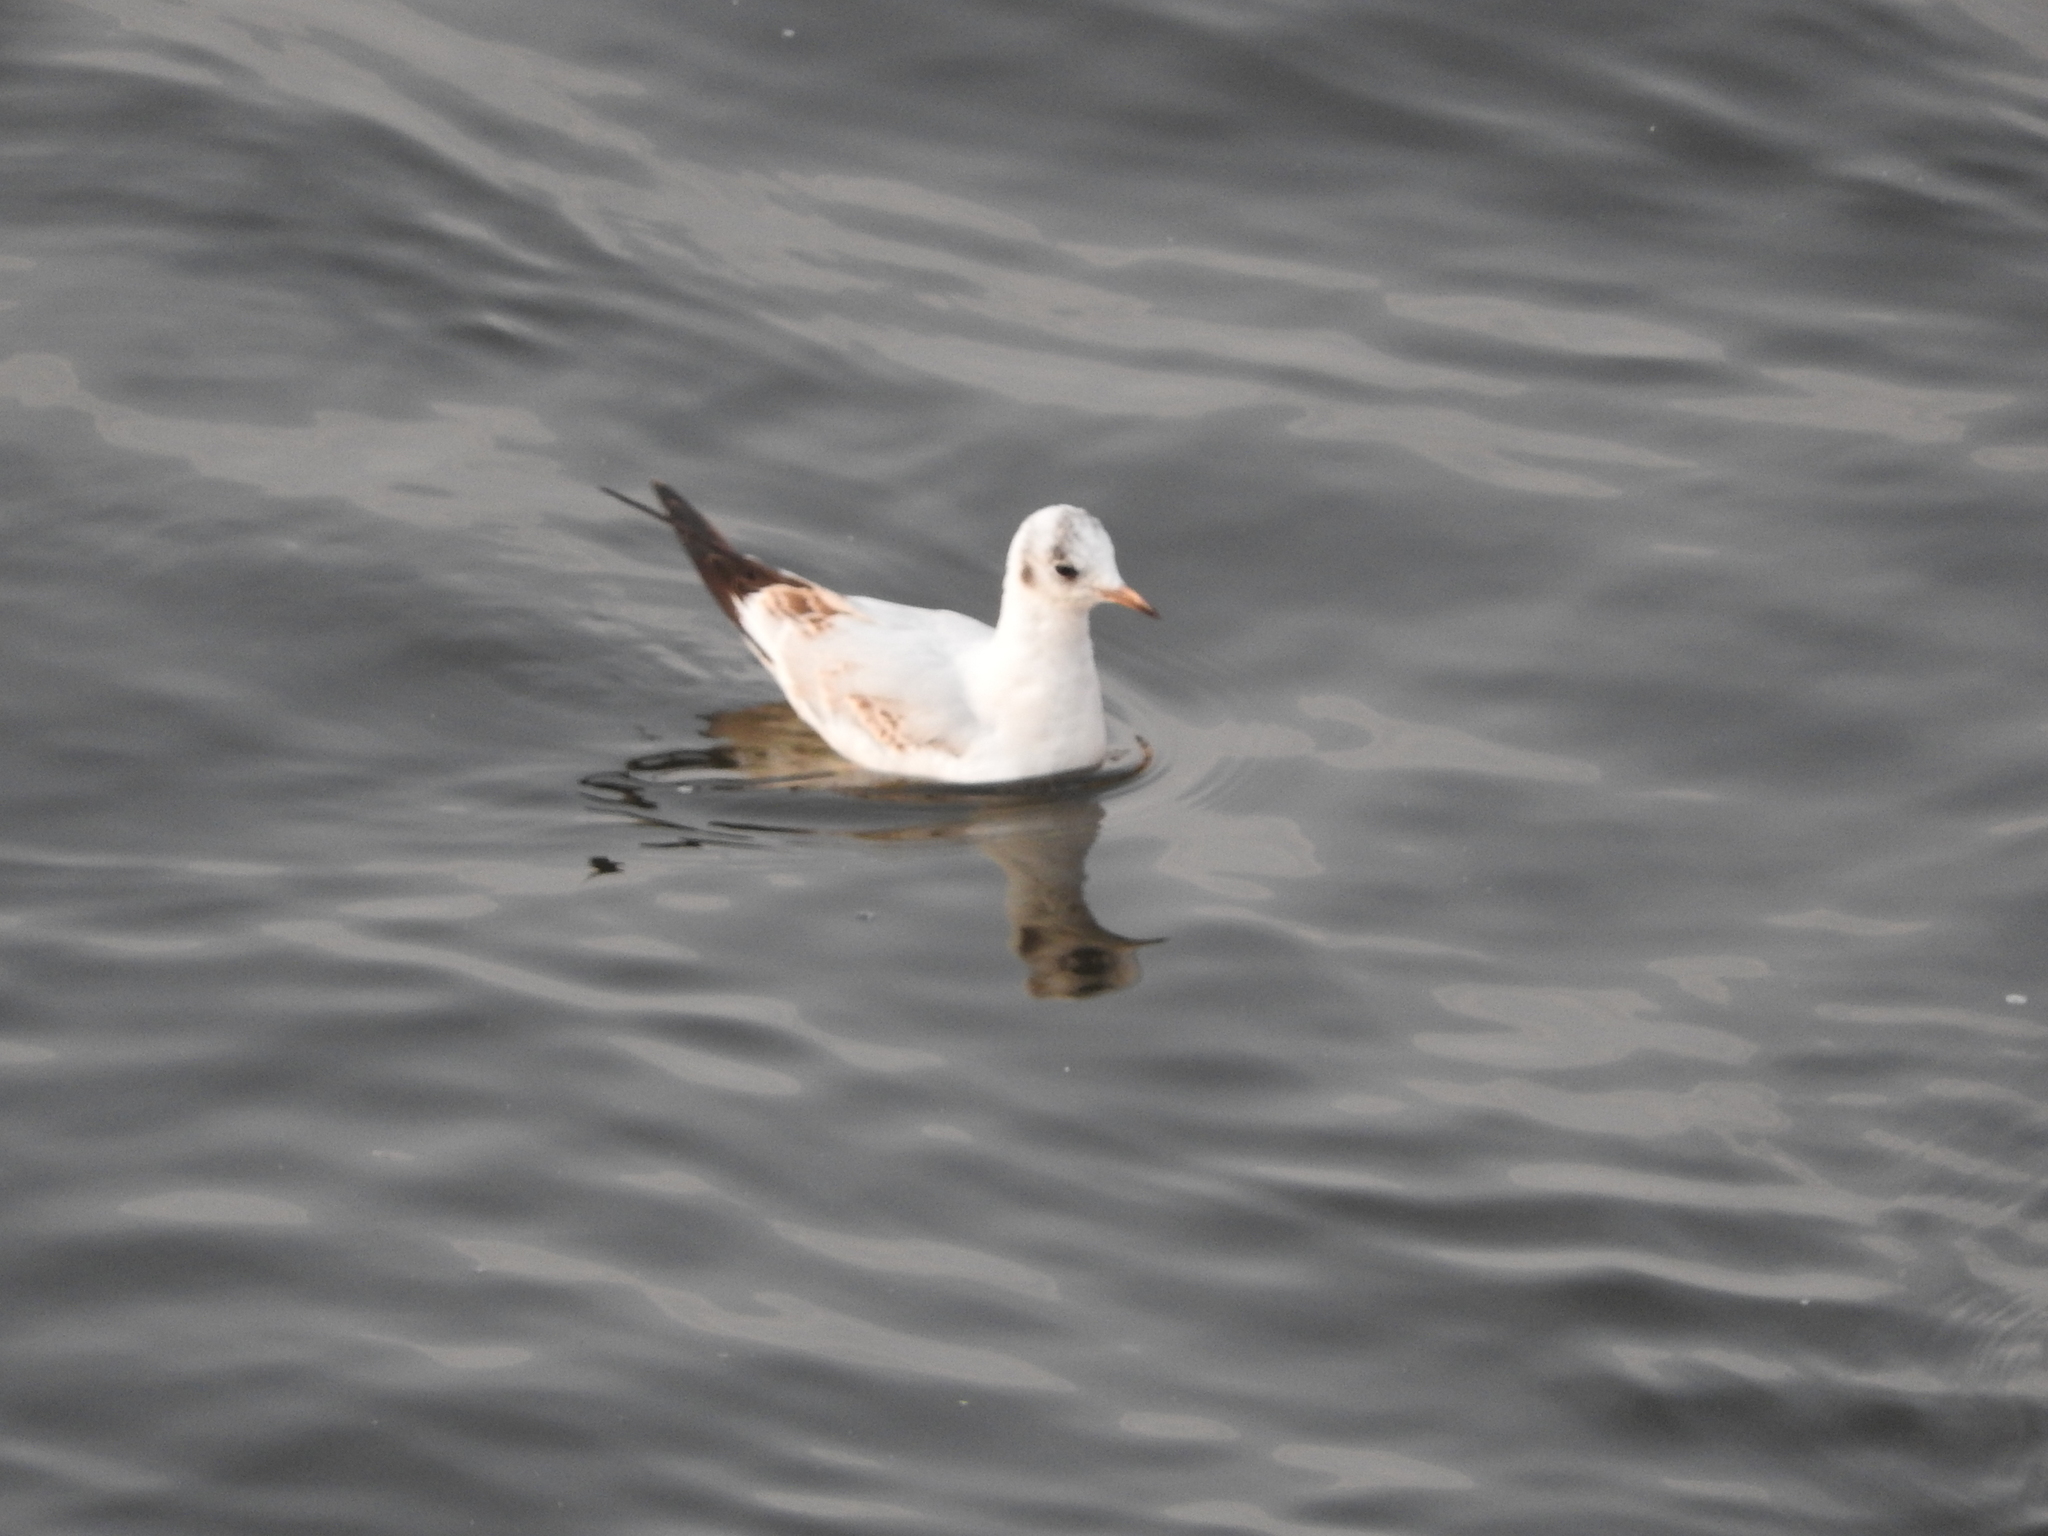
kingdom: Animalia
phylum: Chordata
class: Aves
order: Charadriiformes
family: Laridae
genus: Chroicocephalus
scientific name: Chroicocephalus ridibundus
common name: Black-headed gull
